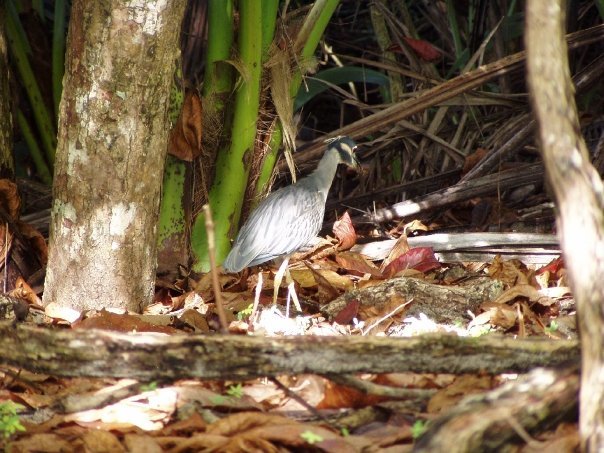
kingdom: Animalia
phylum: Chordata
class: Aves
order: Pelecaniformes
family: Ardeidae
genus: Nyctanassa
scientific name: Nyctanassa violacea
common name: Yellow-crowned night heron
